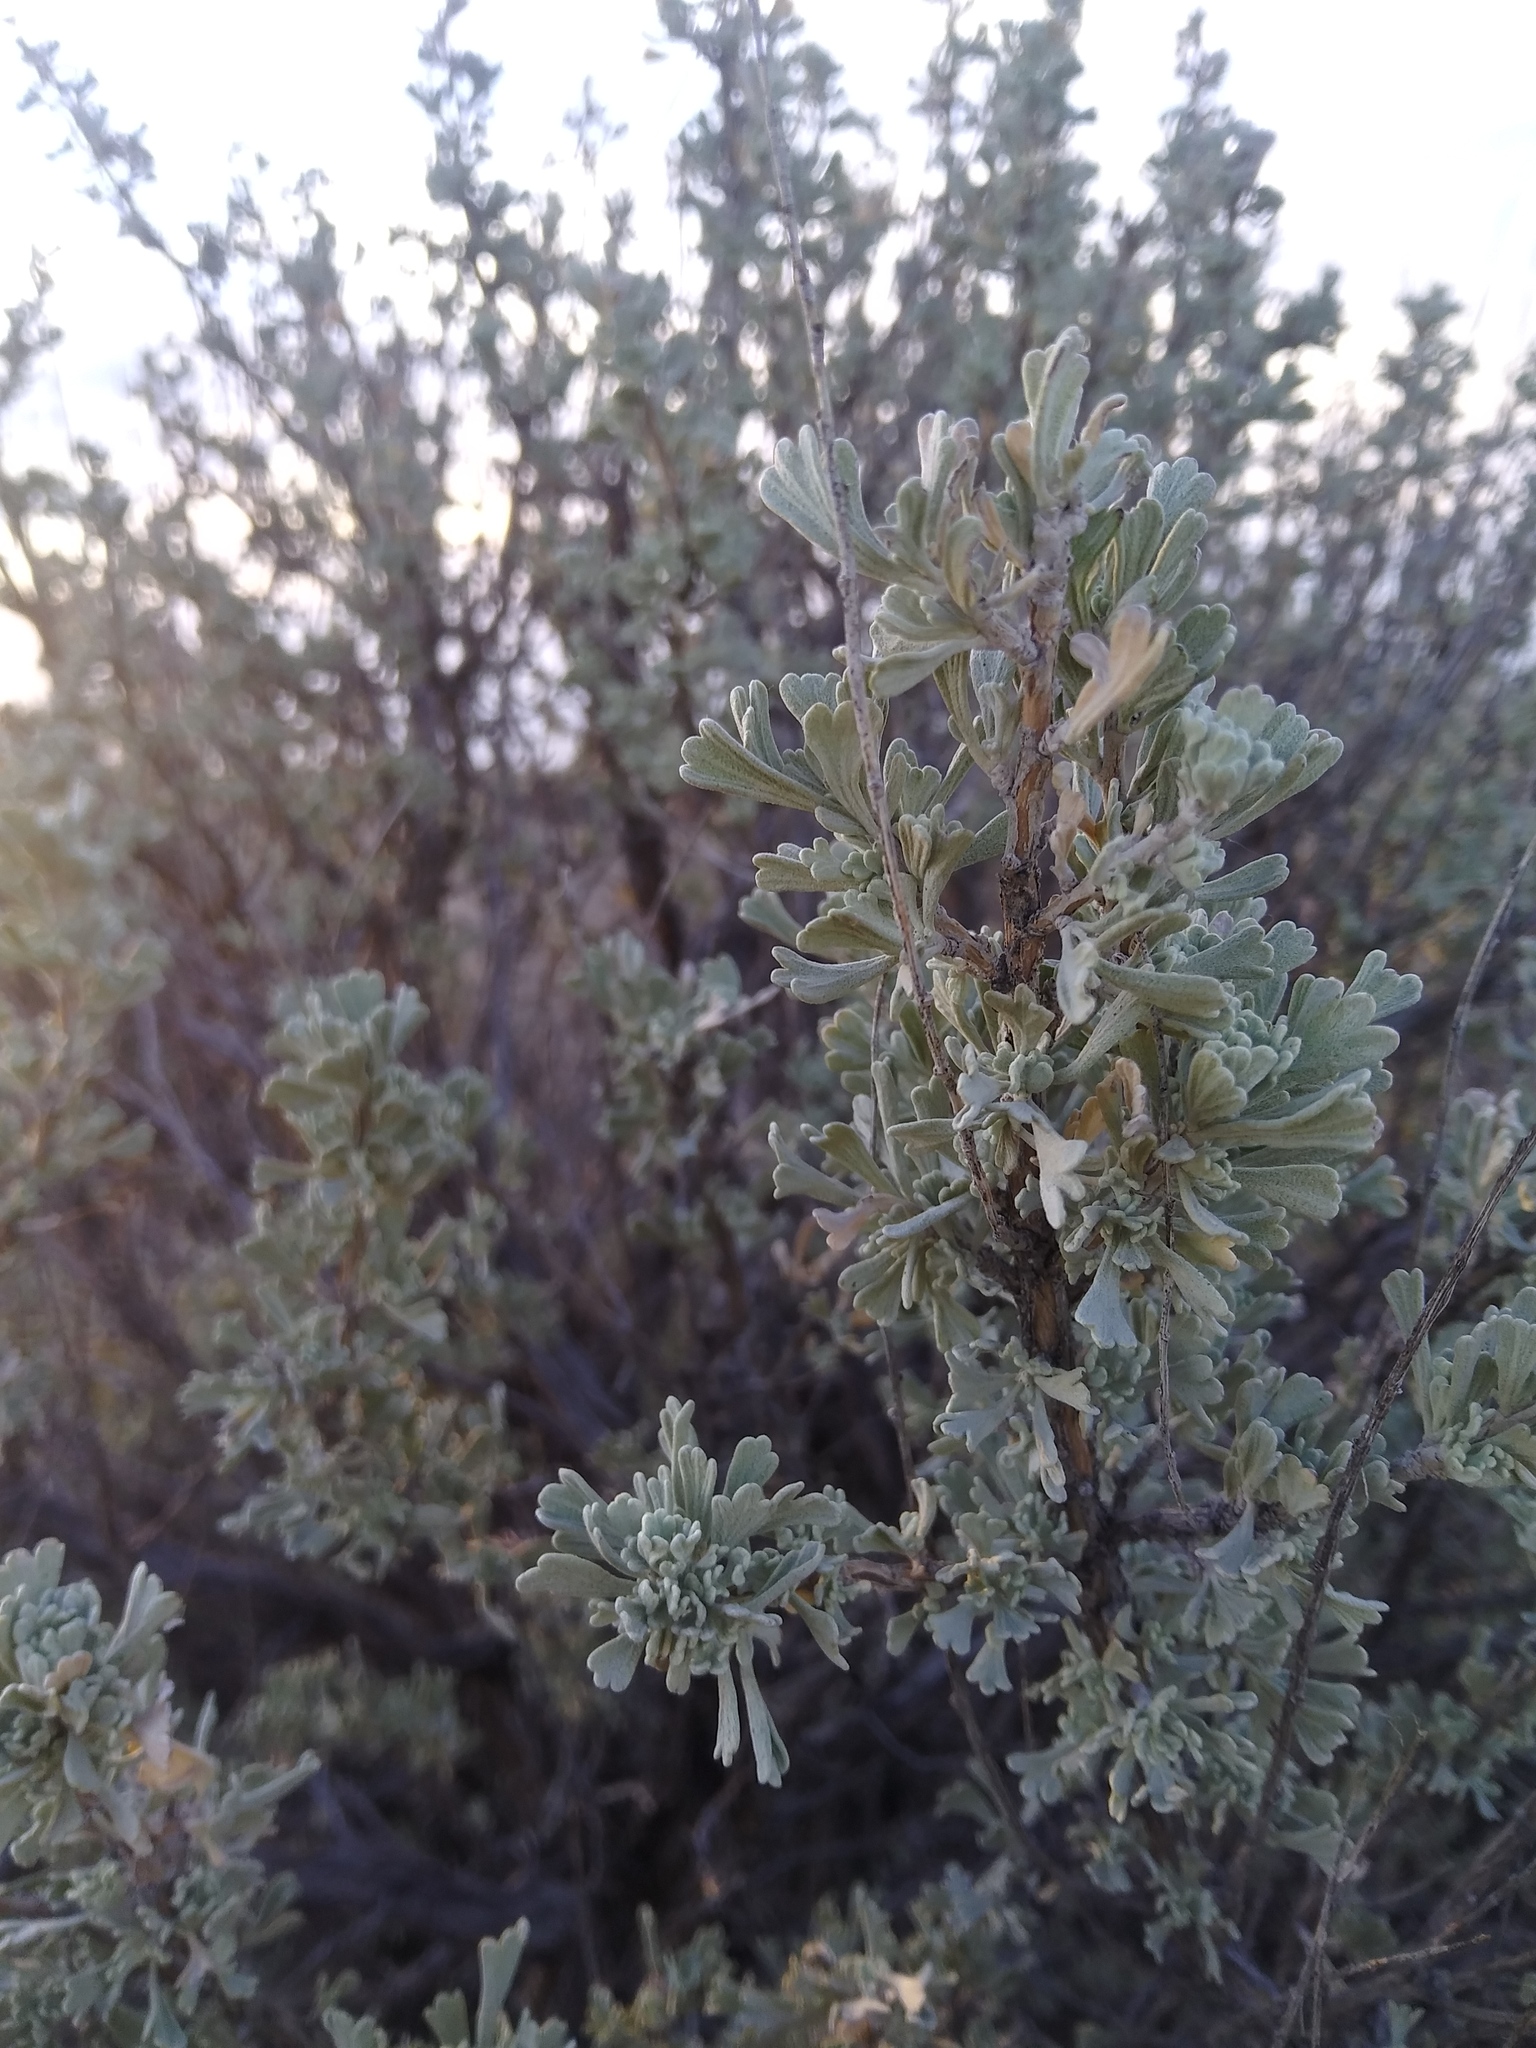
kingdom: Plantae
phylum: Tracheophyta
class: Magnoliopsida
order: Asterales
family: Asteraceae
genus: Artemisia
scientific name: Artemisia tridentata
